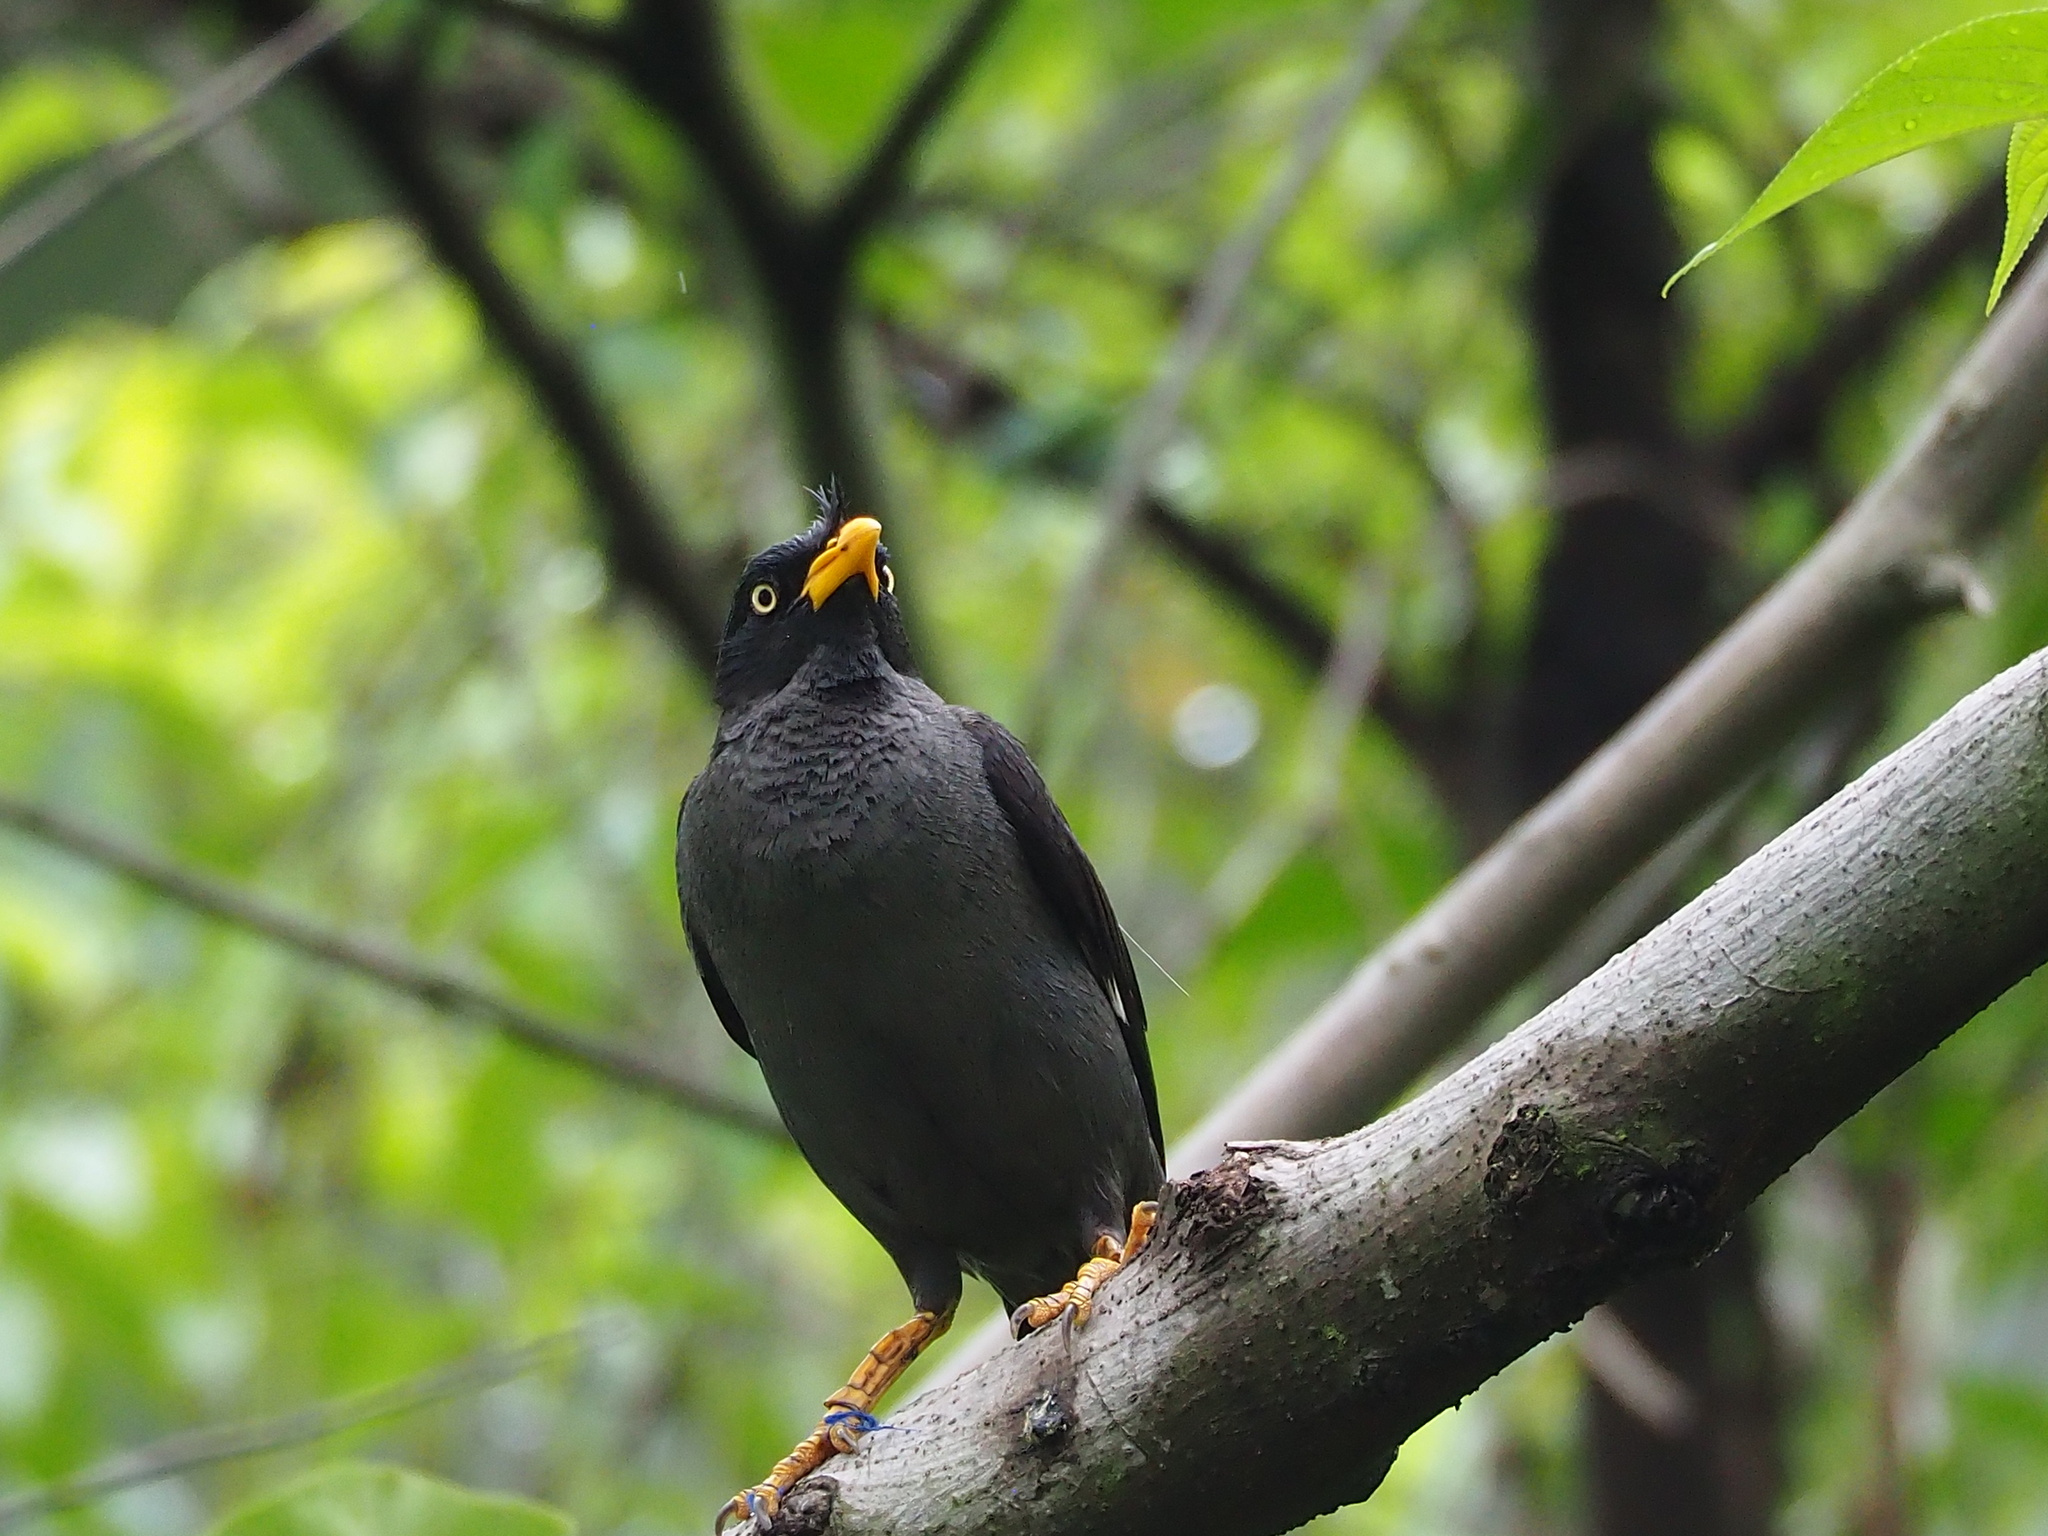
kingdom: Animalia
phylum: Chordata
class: Aves
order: Passeriformes
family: Sturnidae
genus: Acridotheres
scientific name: Acridotheres javanicus
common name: Javan myna
